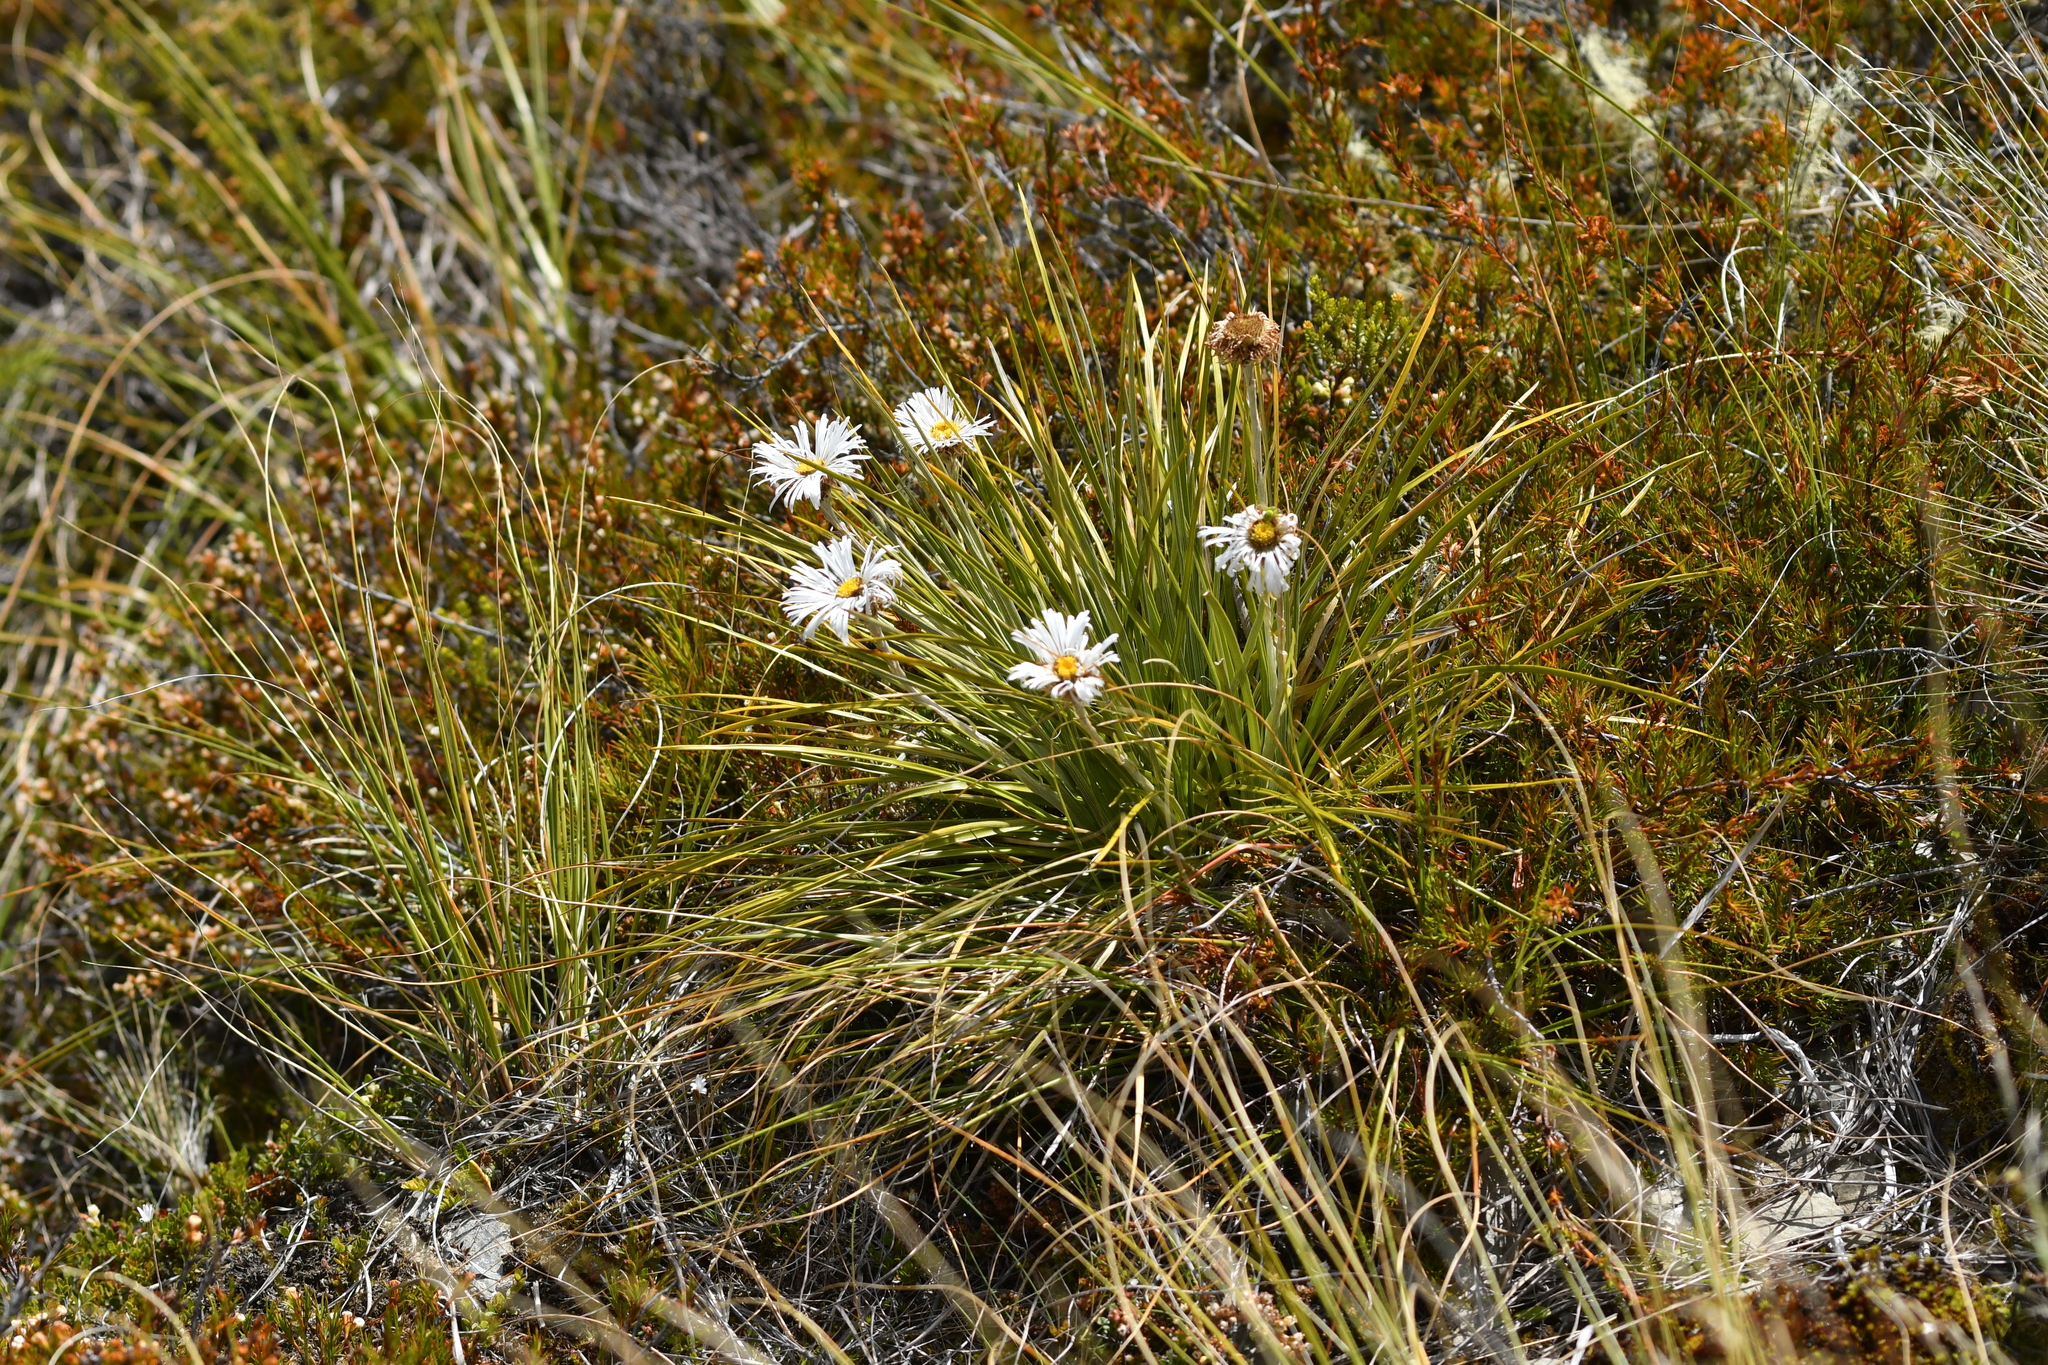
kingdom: Plantae
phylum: Tracheophyta
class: Magnoliopsida
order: Asterales
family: Asteraceae
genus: Celmisia
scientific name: Celmisia lyallii
